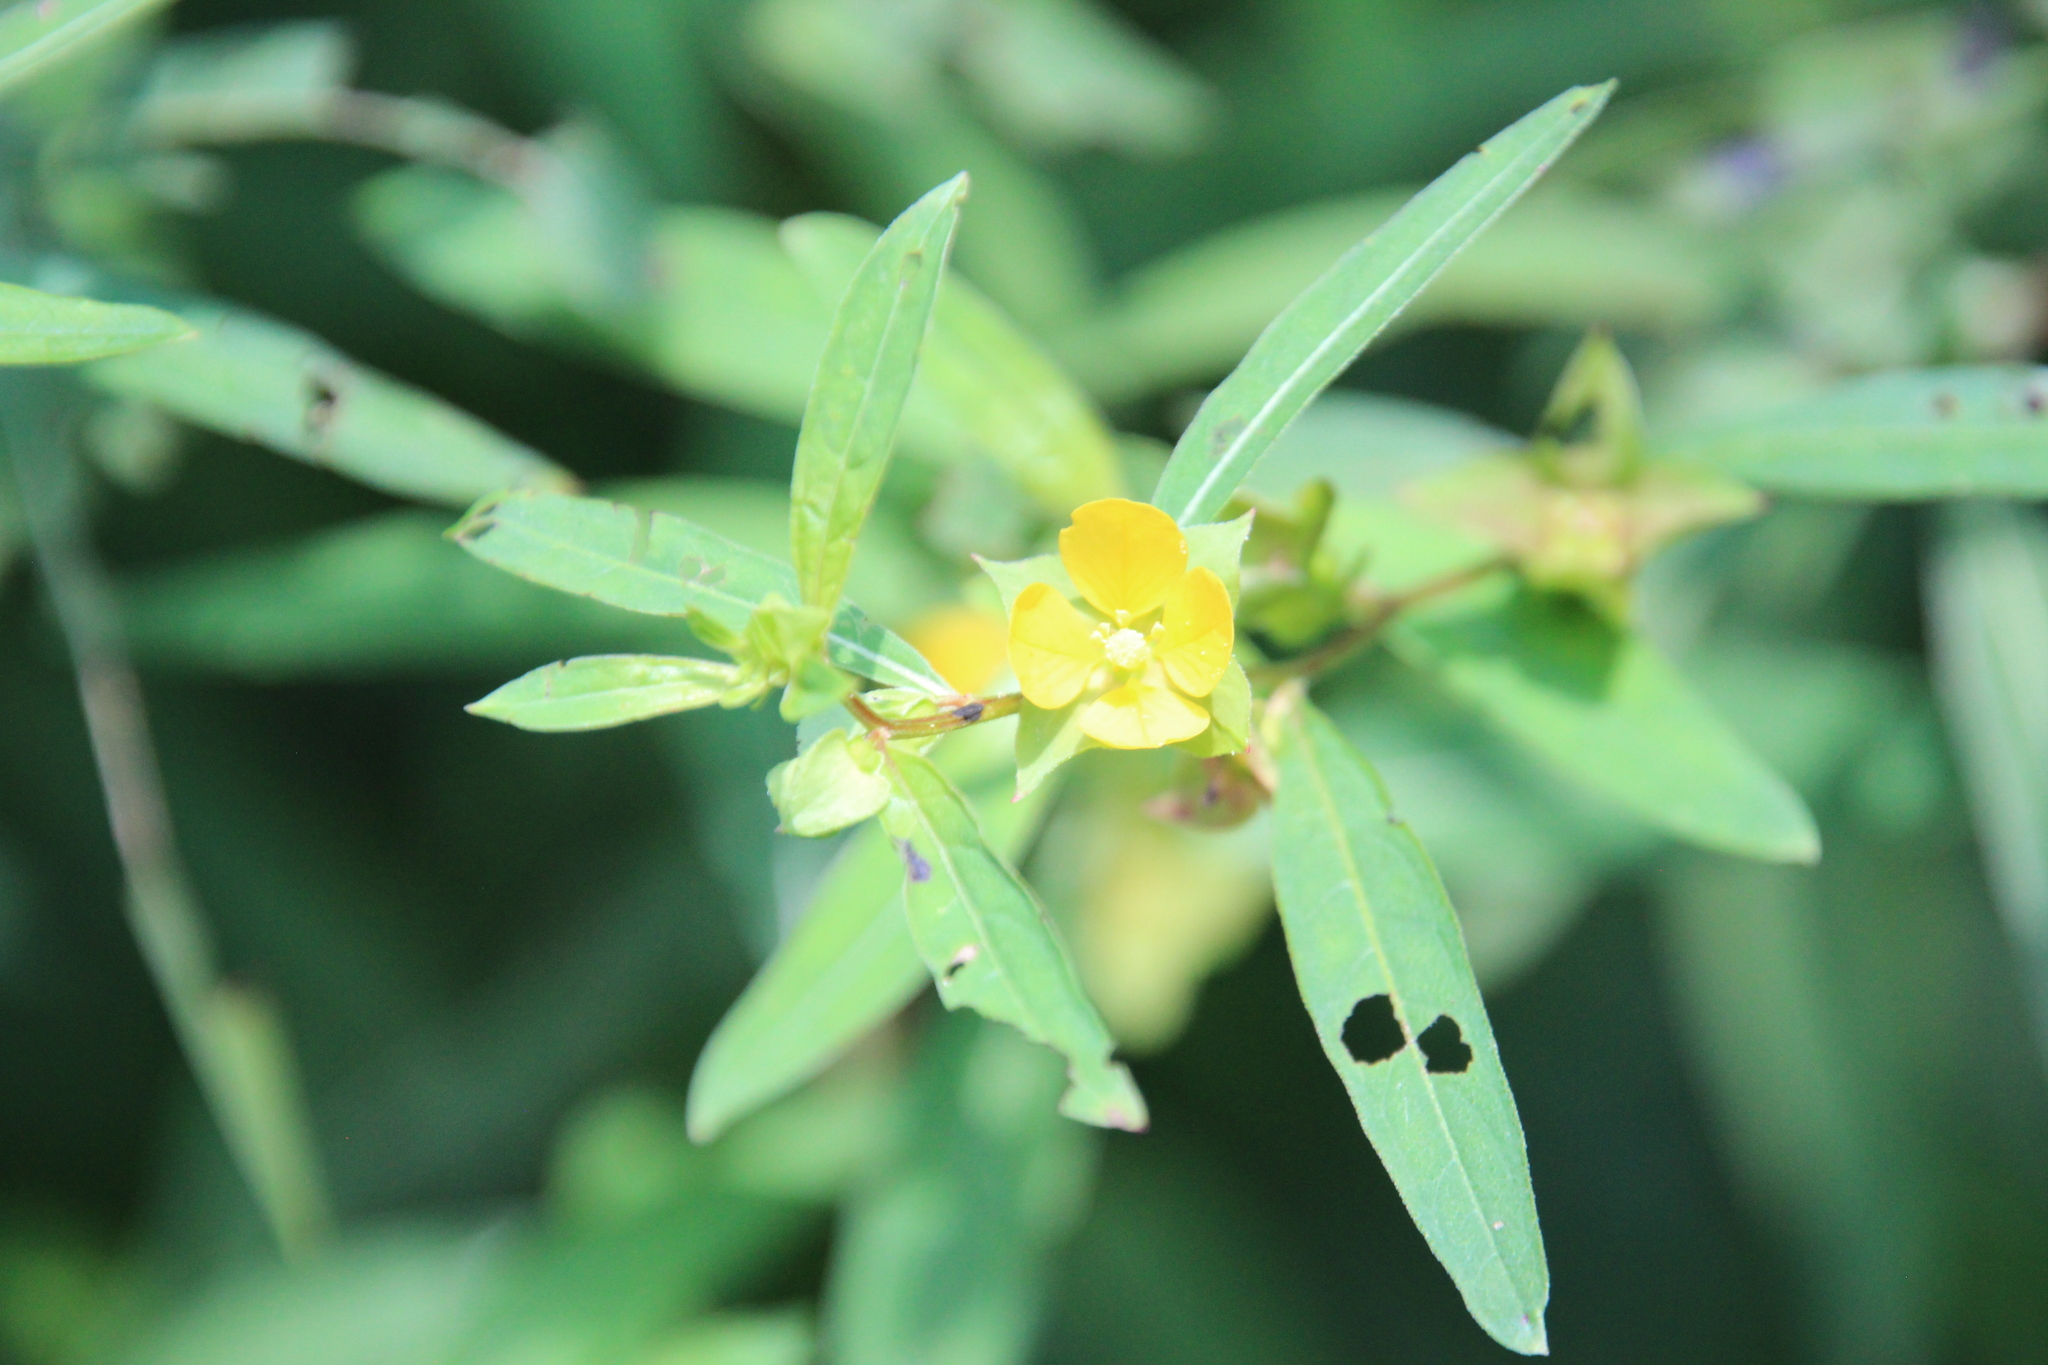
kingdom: Plantae
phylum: Tracheophyta
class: Magnoliopsida
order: Myrtales
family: Onagraceae
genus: Ludwigia
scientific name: Ludwigia alternifolia
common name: Rattlebox
